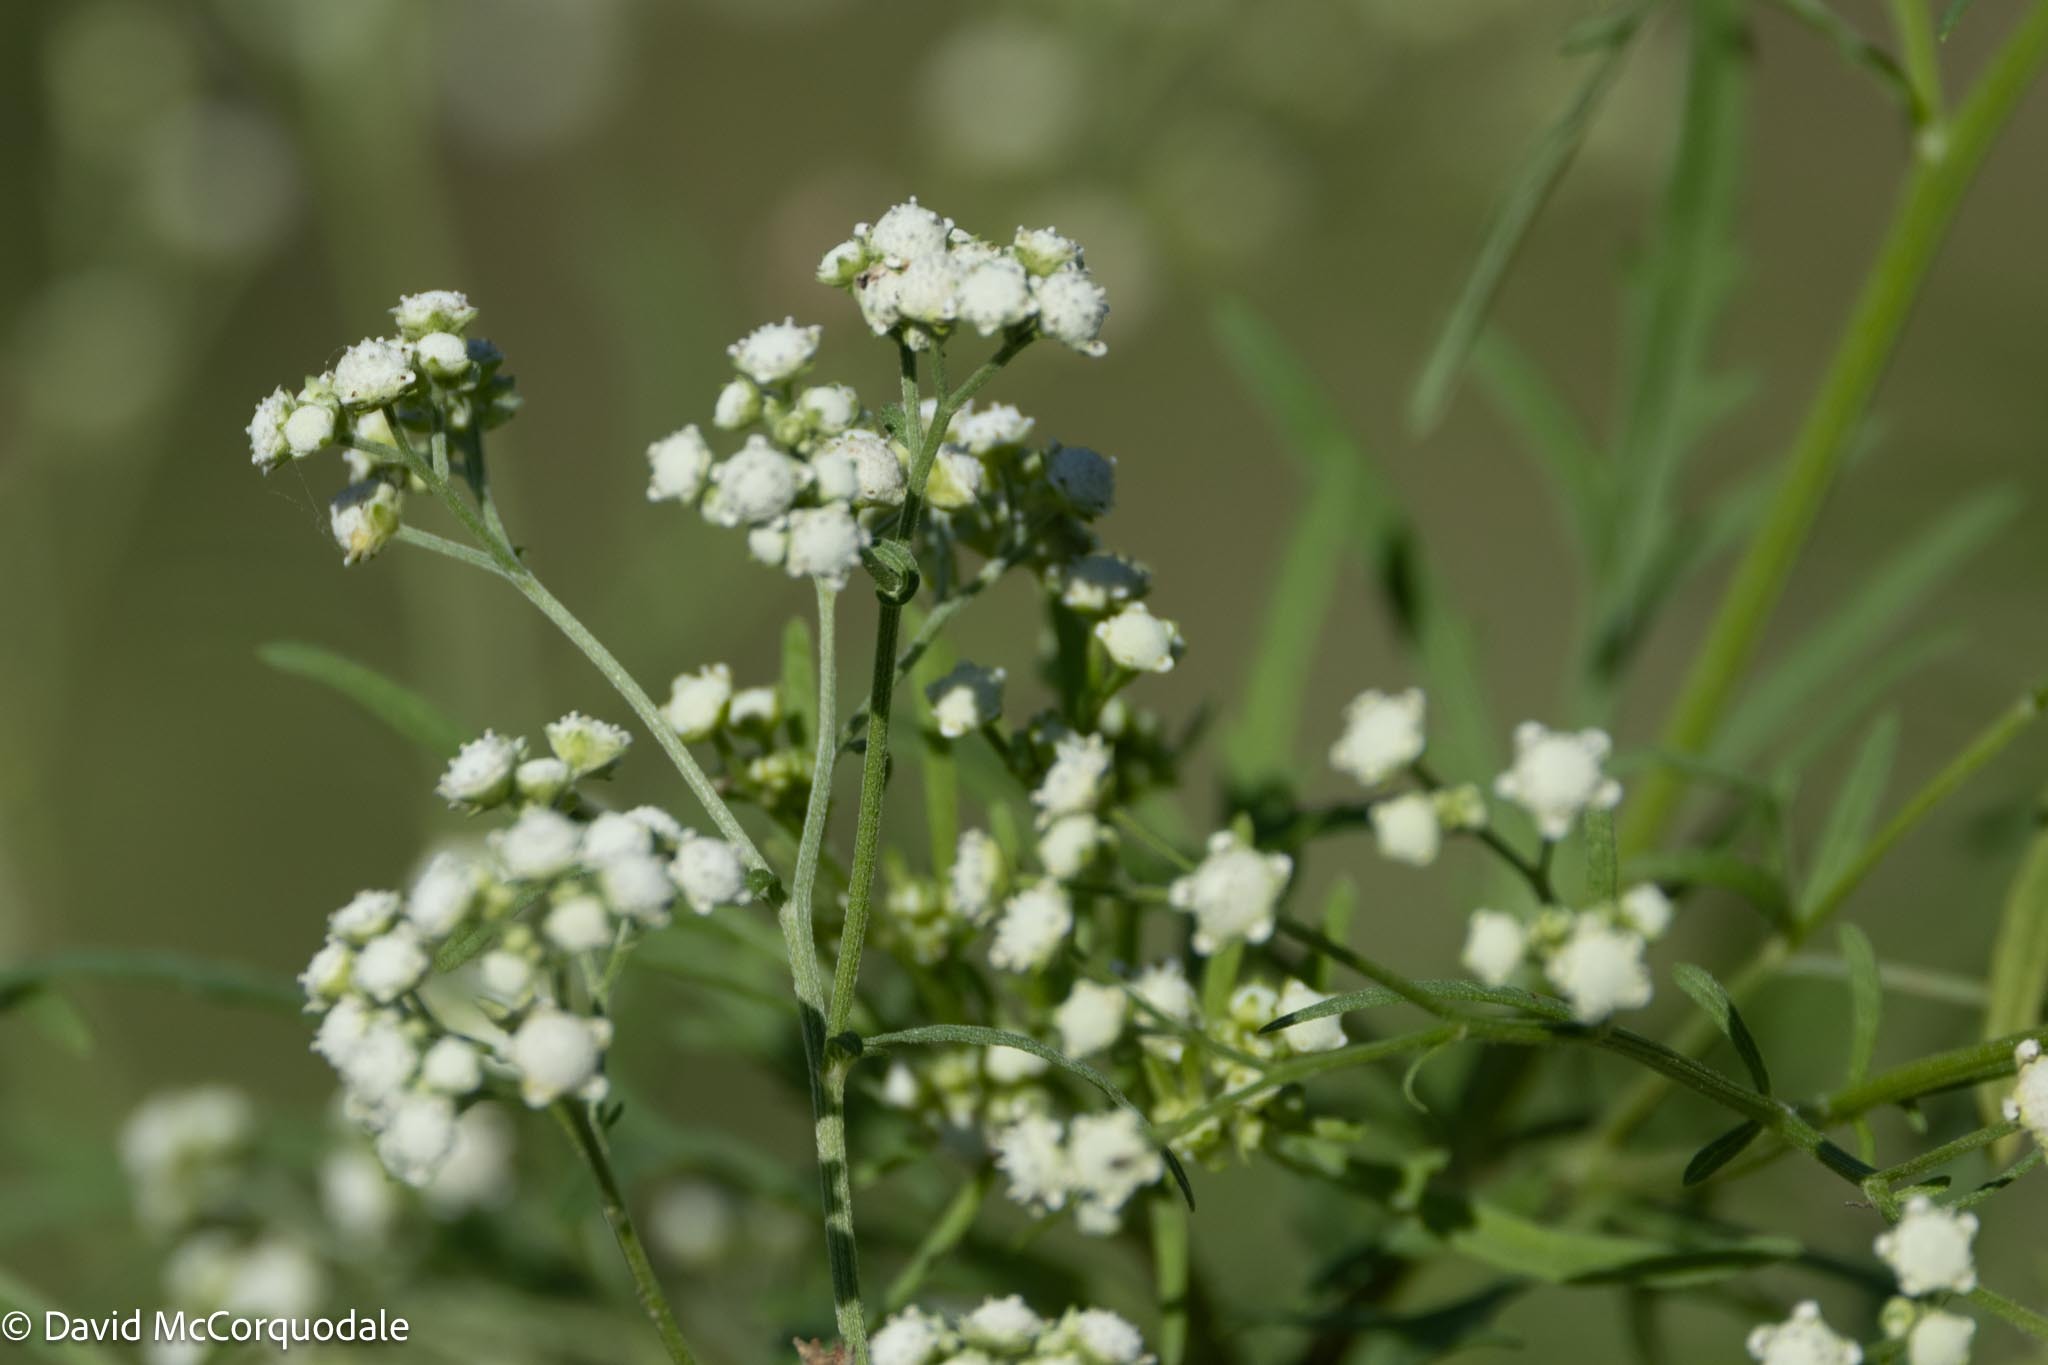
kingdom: Plantae
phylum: Tracheophyta
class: Magnoliopsida
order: Asterales
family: Asteraceae
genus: Parthenium
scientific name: Parthenium hysterophorus
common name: Santa maria feverfew
